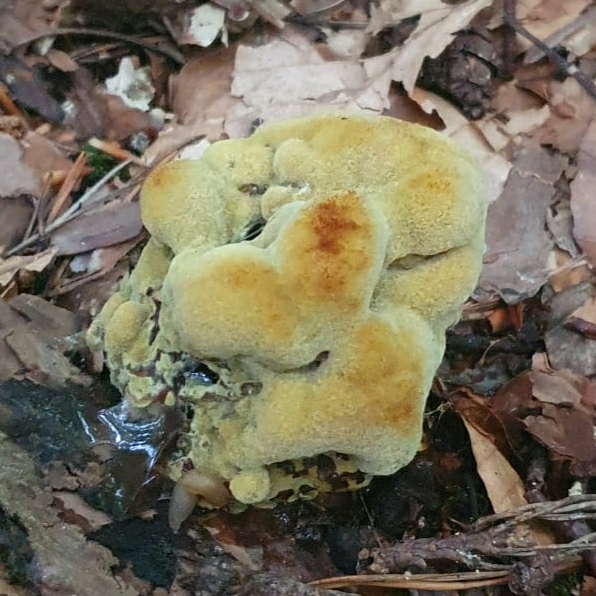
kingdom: Fungi
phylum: Basidiomycota
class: Agaricomycetes
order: Polyporales
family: Laetiporaceae
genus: Phaeolus
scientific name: Phaeolus schweinitzii
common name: Dyer's mazegill
